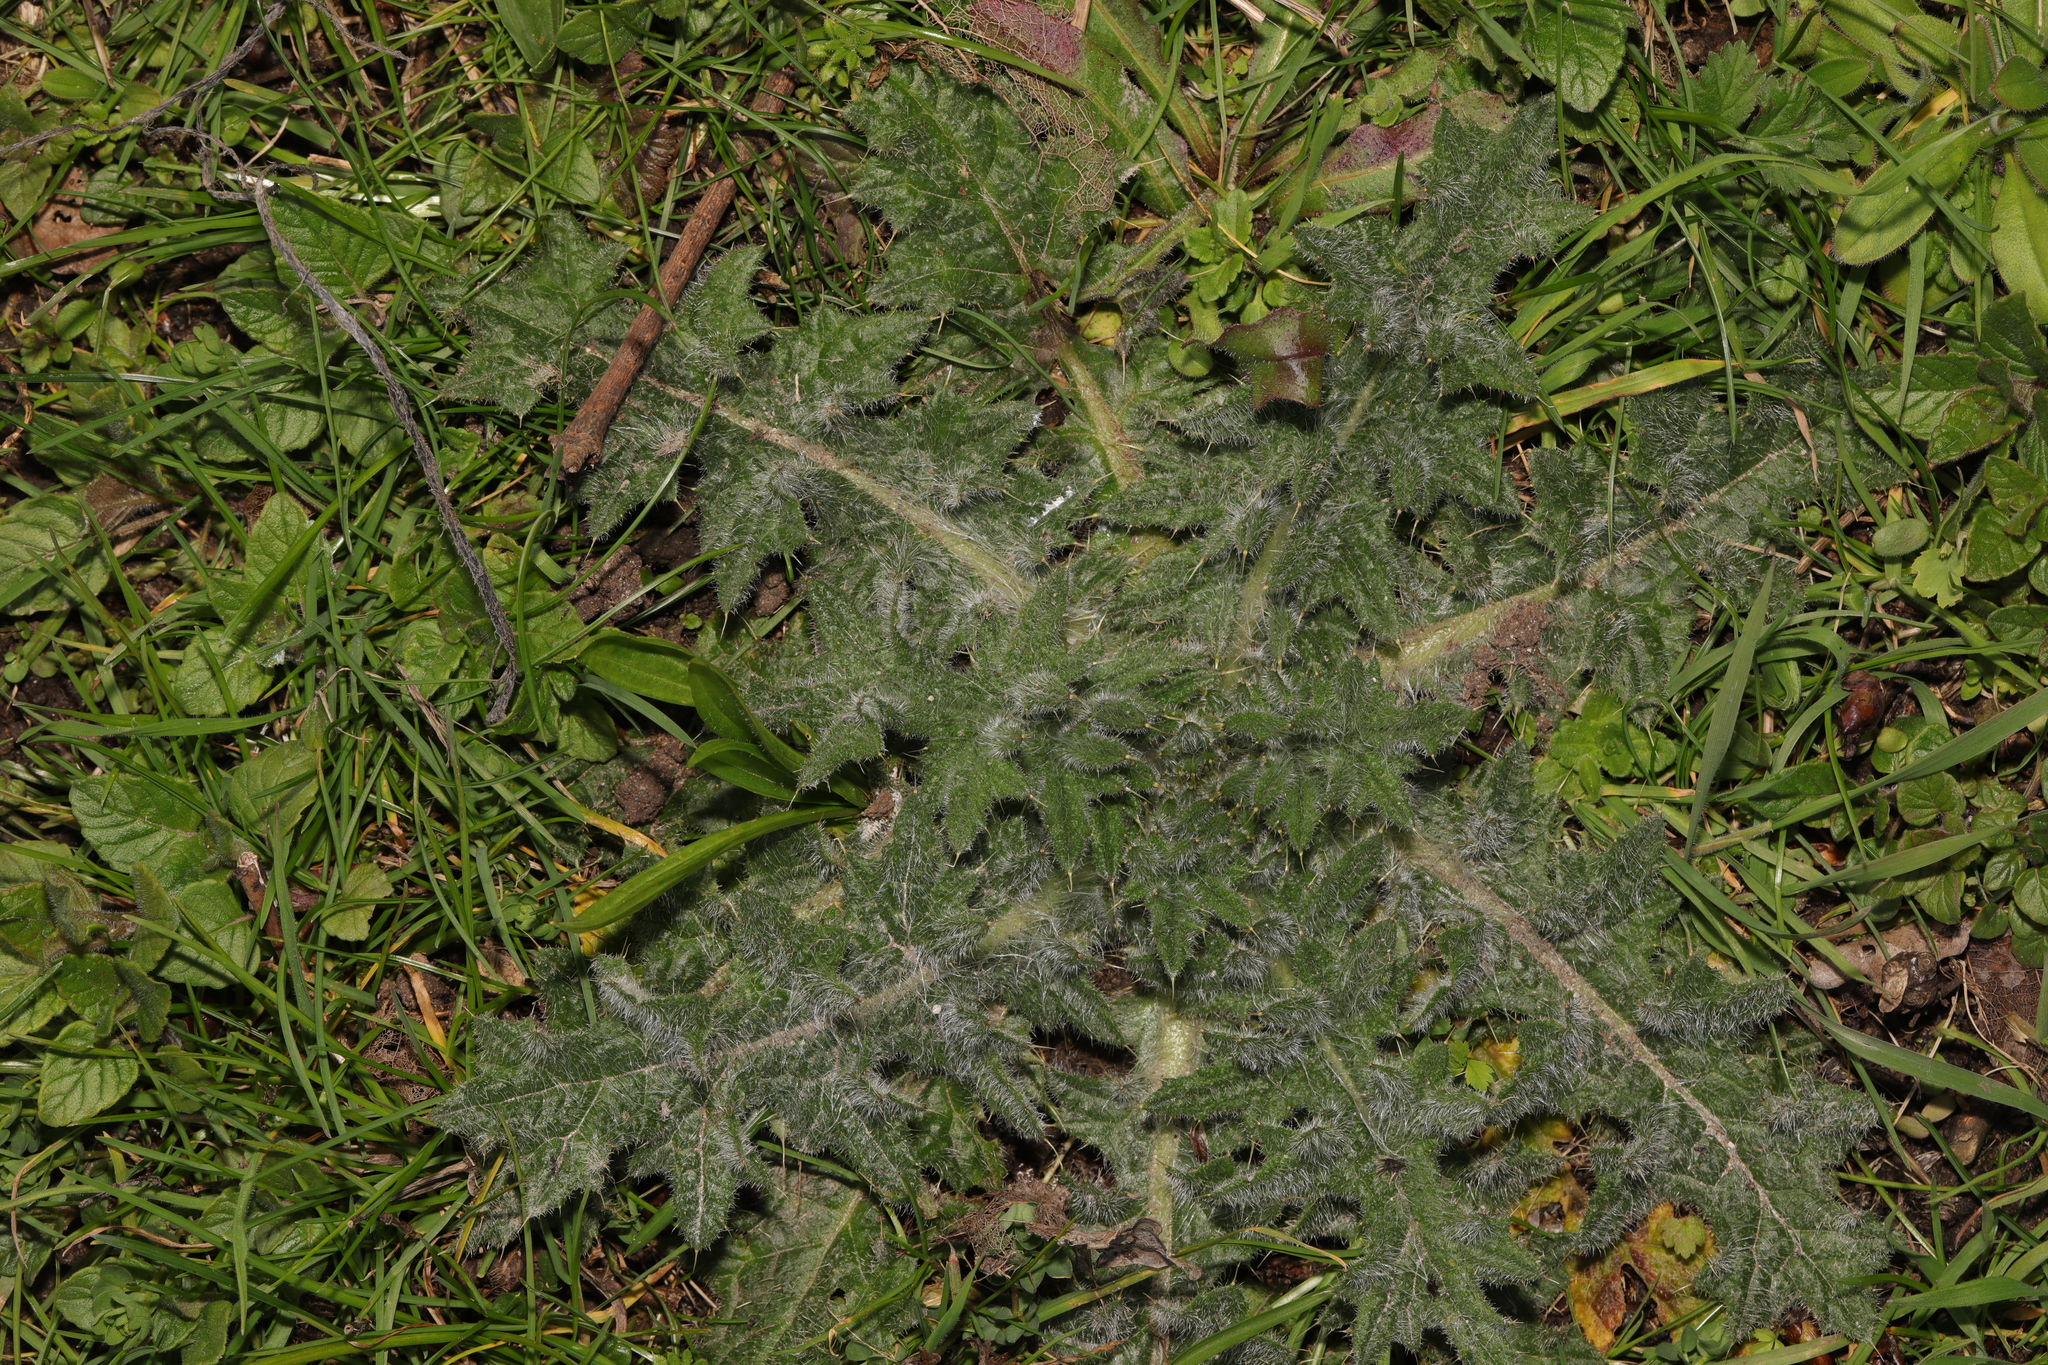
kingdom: Plantae
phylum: Tracheophyta
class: Magnoliopsida
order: Asterales
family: Asteraceae
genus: Cirsium
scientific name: Cirsium vulgare
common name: Bull thistle
